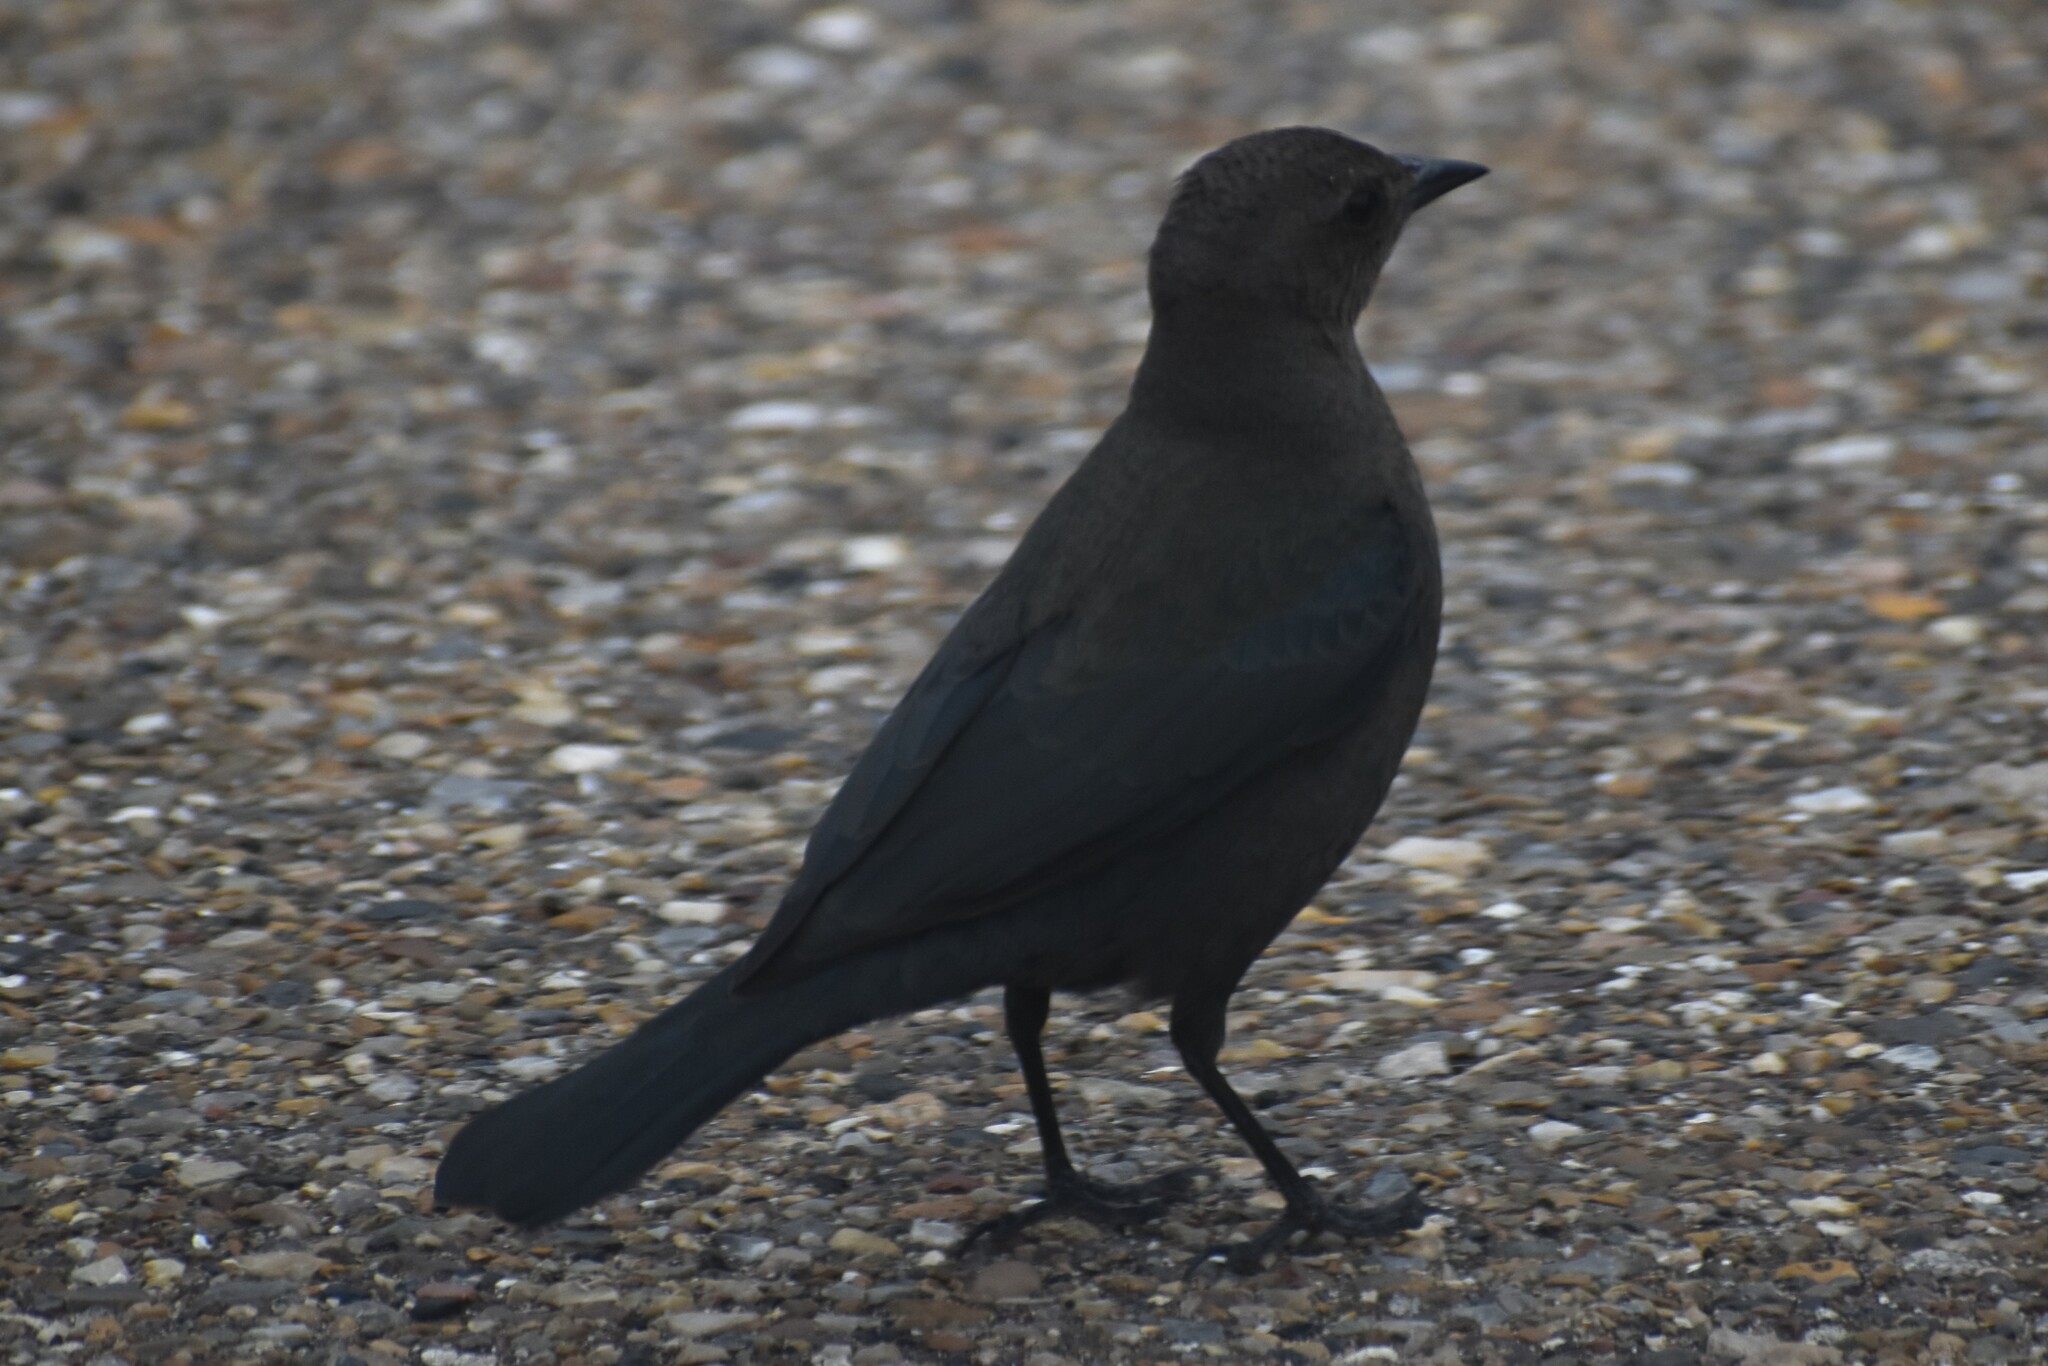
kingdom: Animalia
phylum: Chordata
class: Aves
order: Passeriformes
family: Icteridae
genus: Euphagus
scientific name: Euphagus cyanocephalus
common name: Brewer's blackbird
